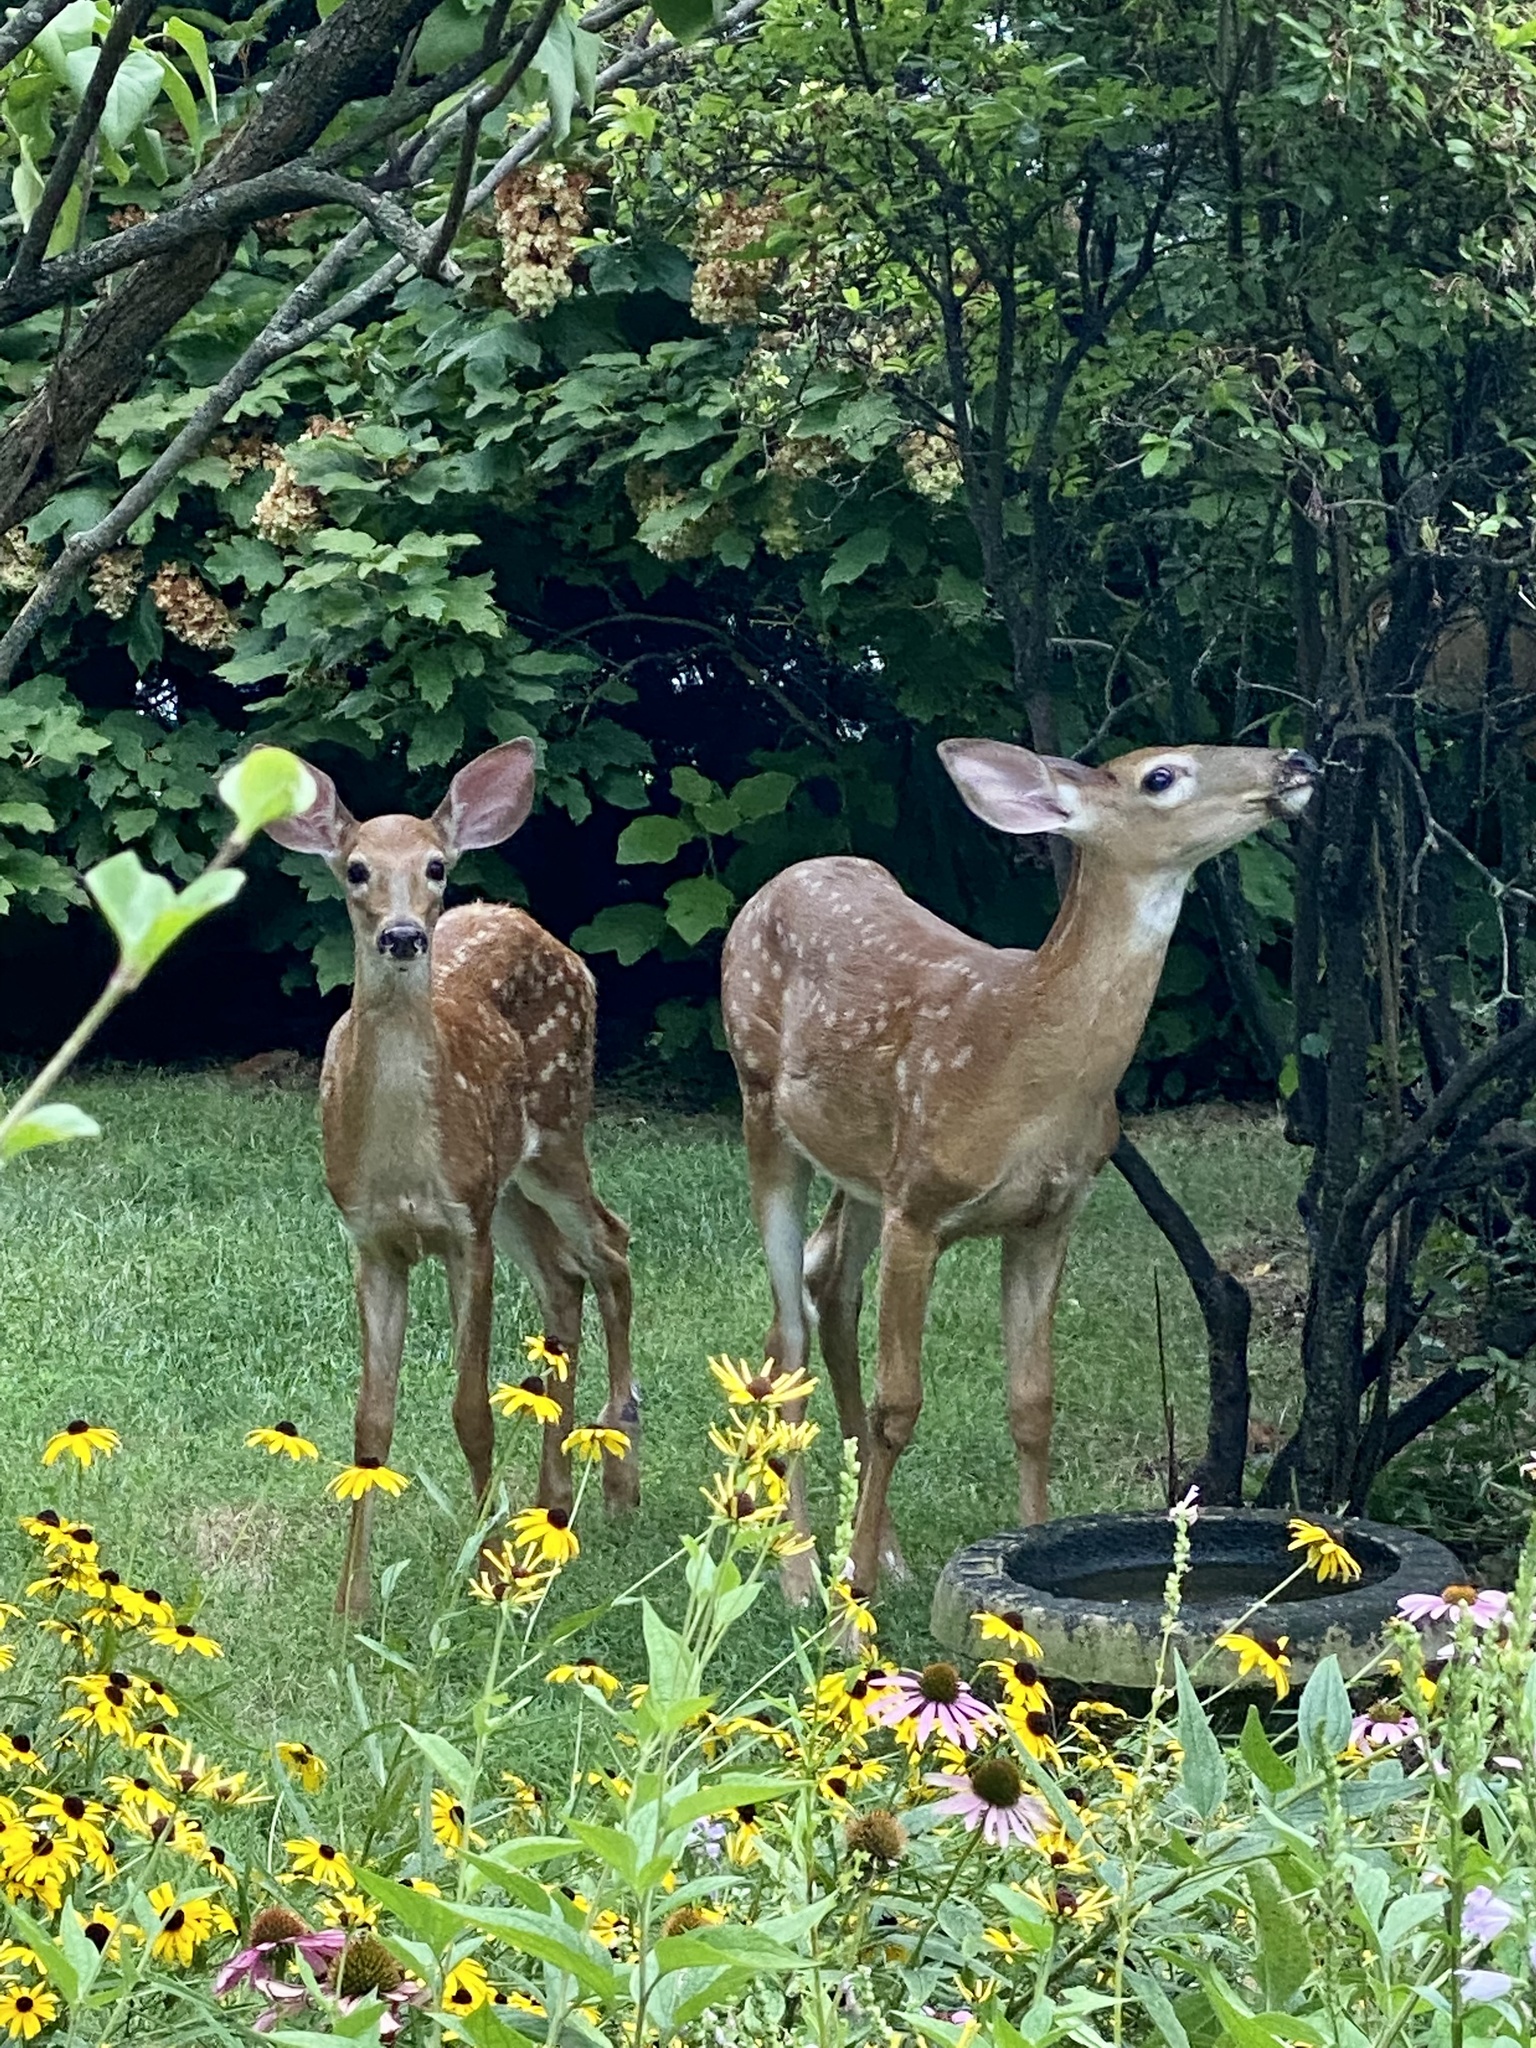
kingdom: Animalia
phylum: Chordata
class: Mammalia
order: Artiodactyla
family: Cervidae
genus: Odocoileus
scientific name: Odocoileus virginianus
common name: White-tailed deer
